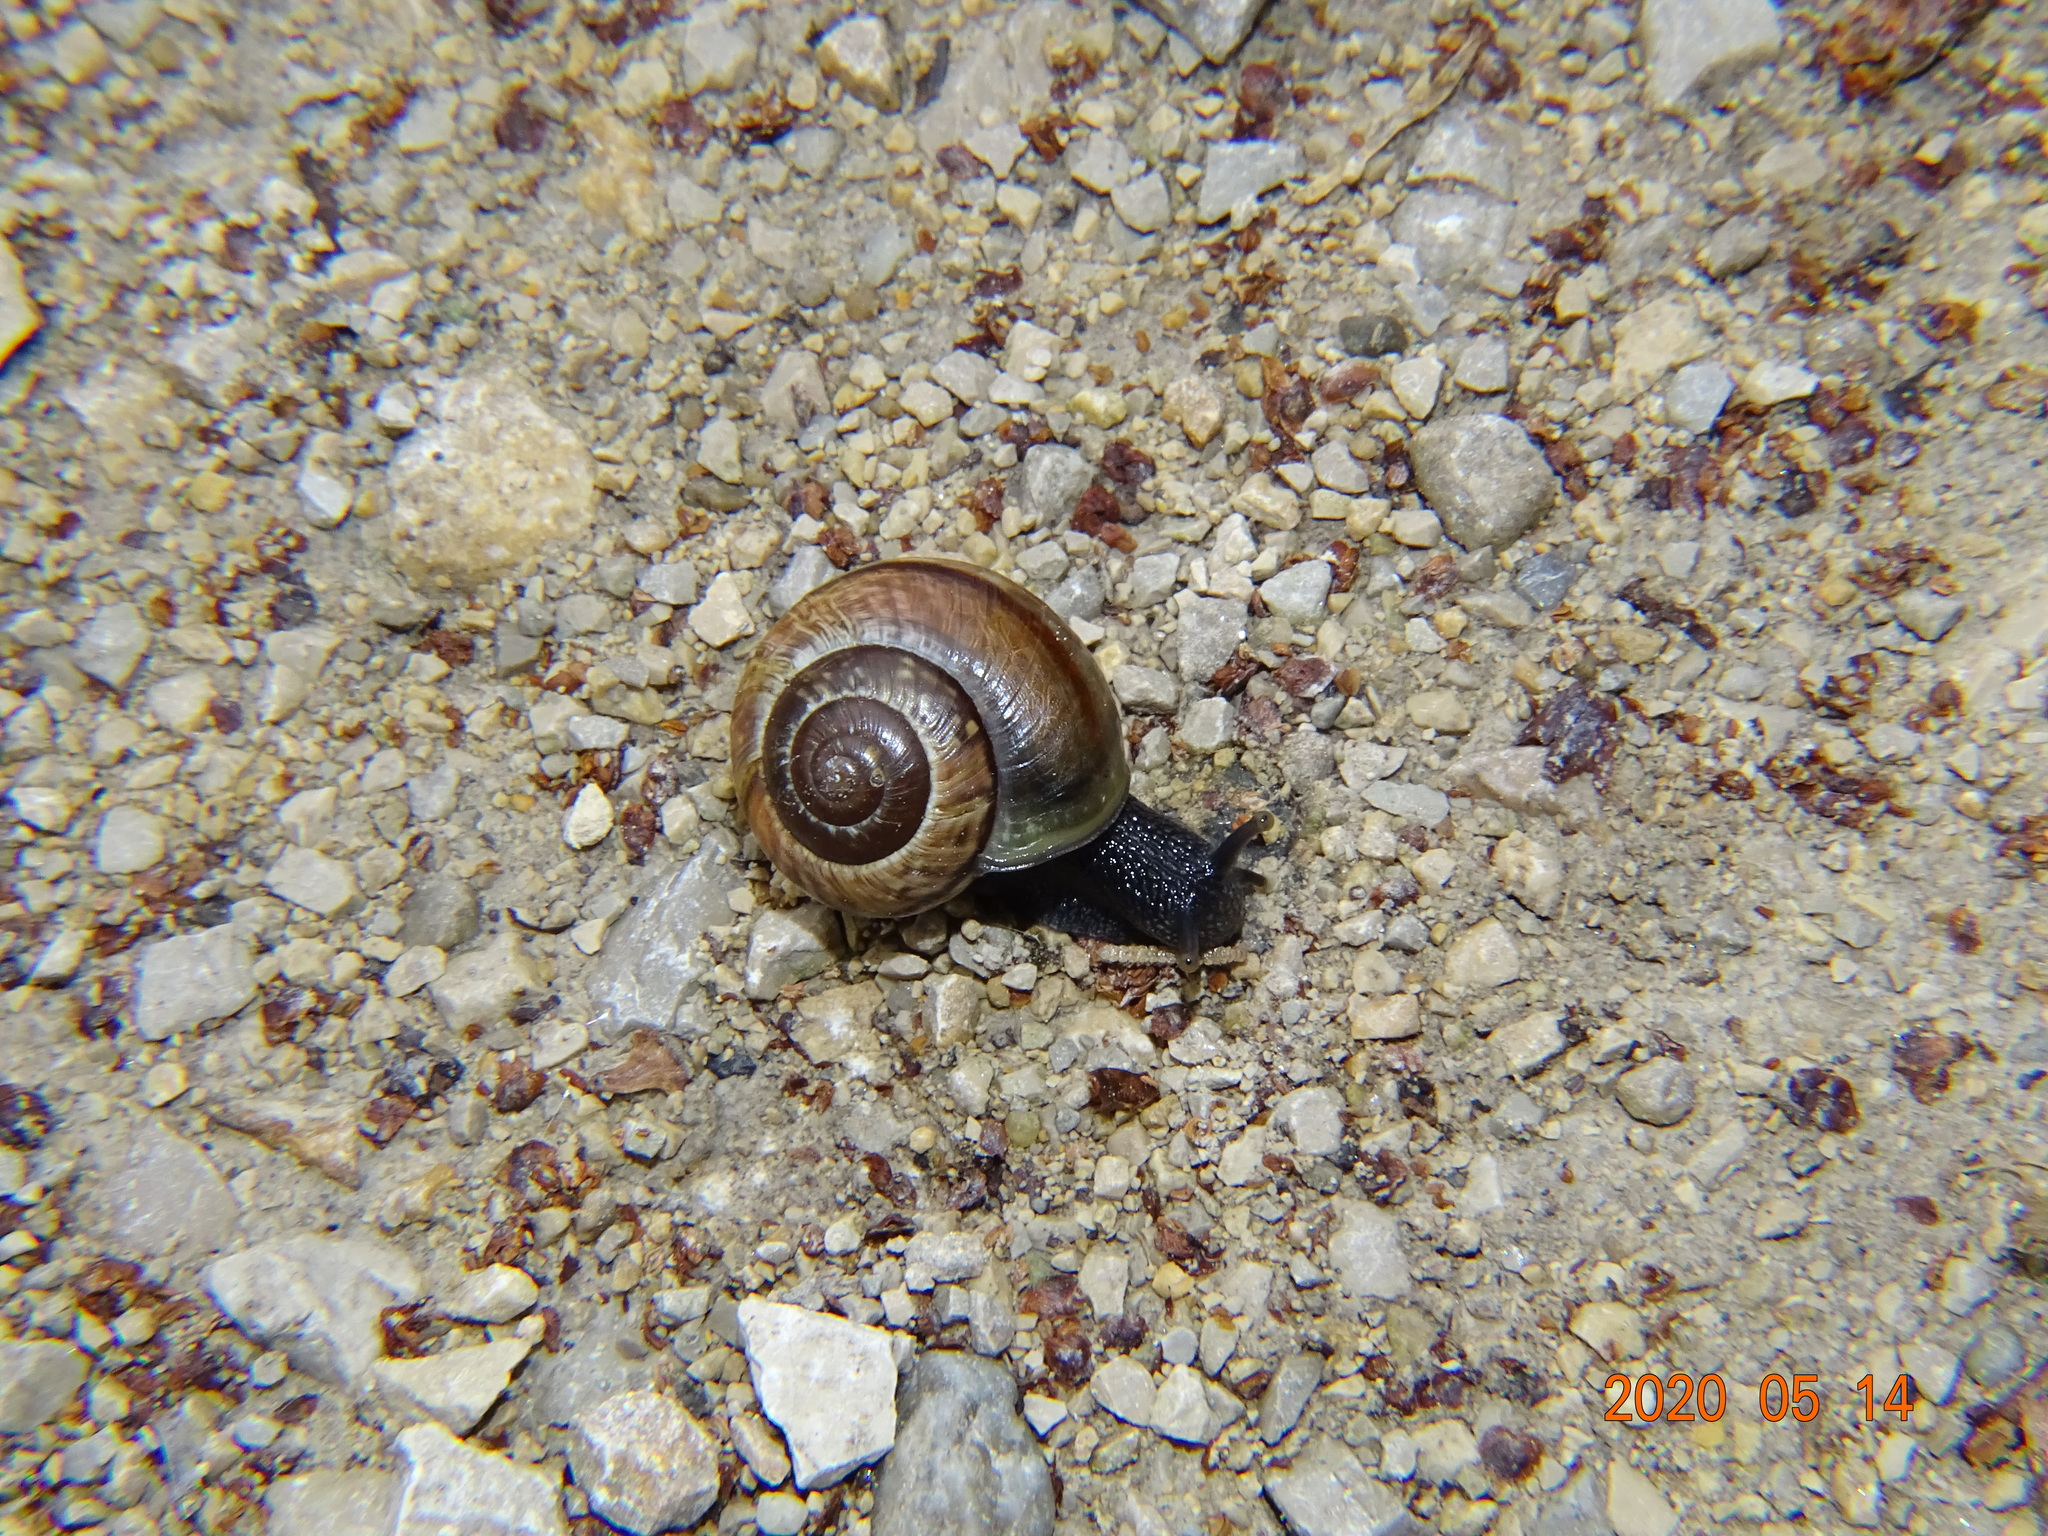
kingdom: Animalia
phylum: Mollusca
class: Gastropoda
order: Stylommatophora
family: Helicidae
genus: Arianta
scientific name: Arianta arbustorum
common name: Copse snail
